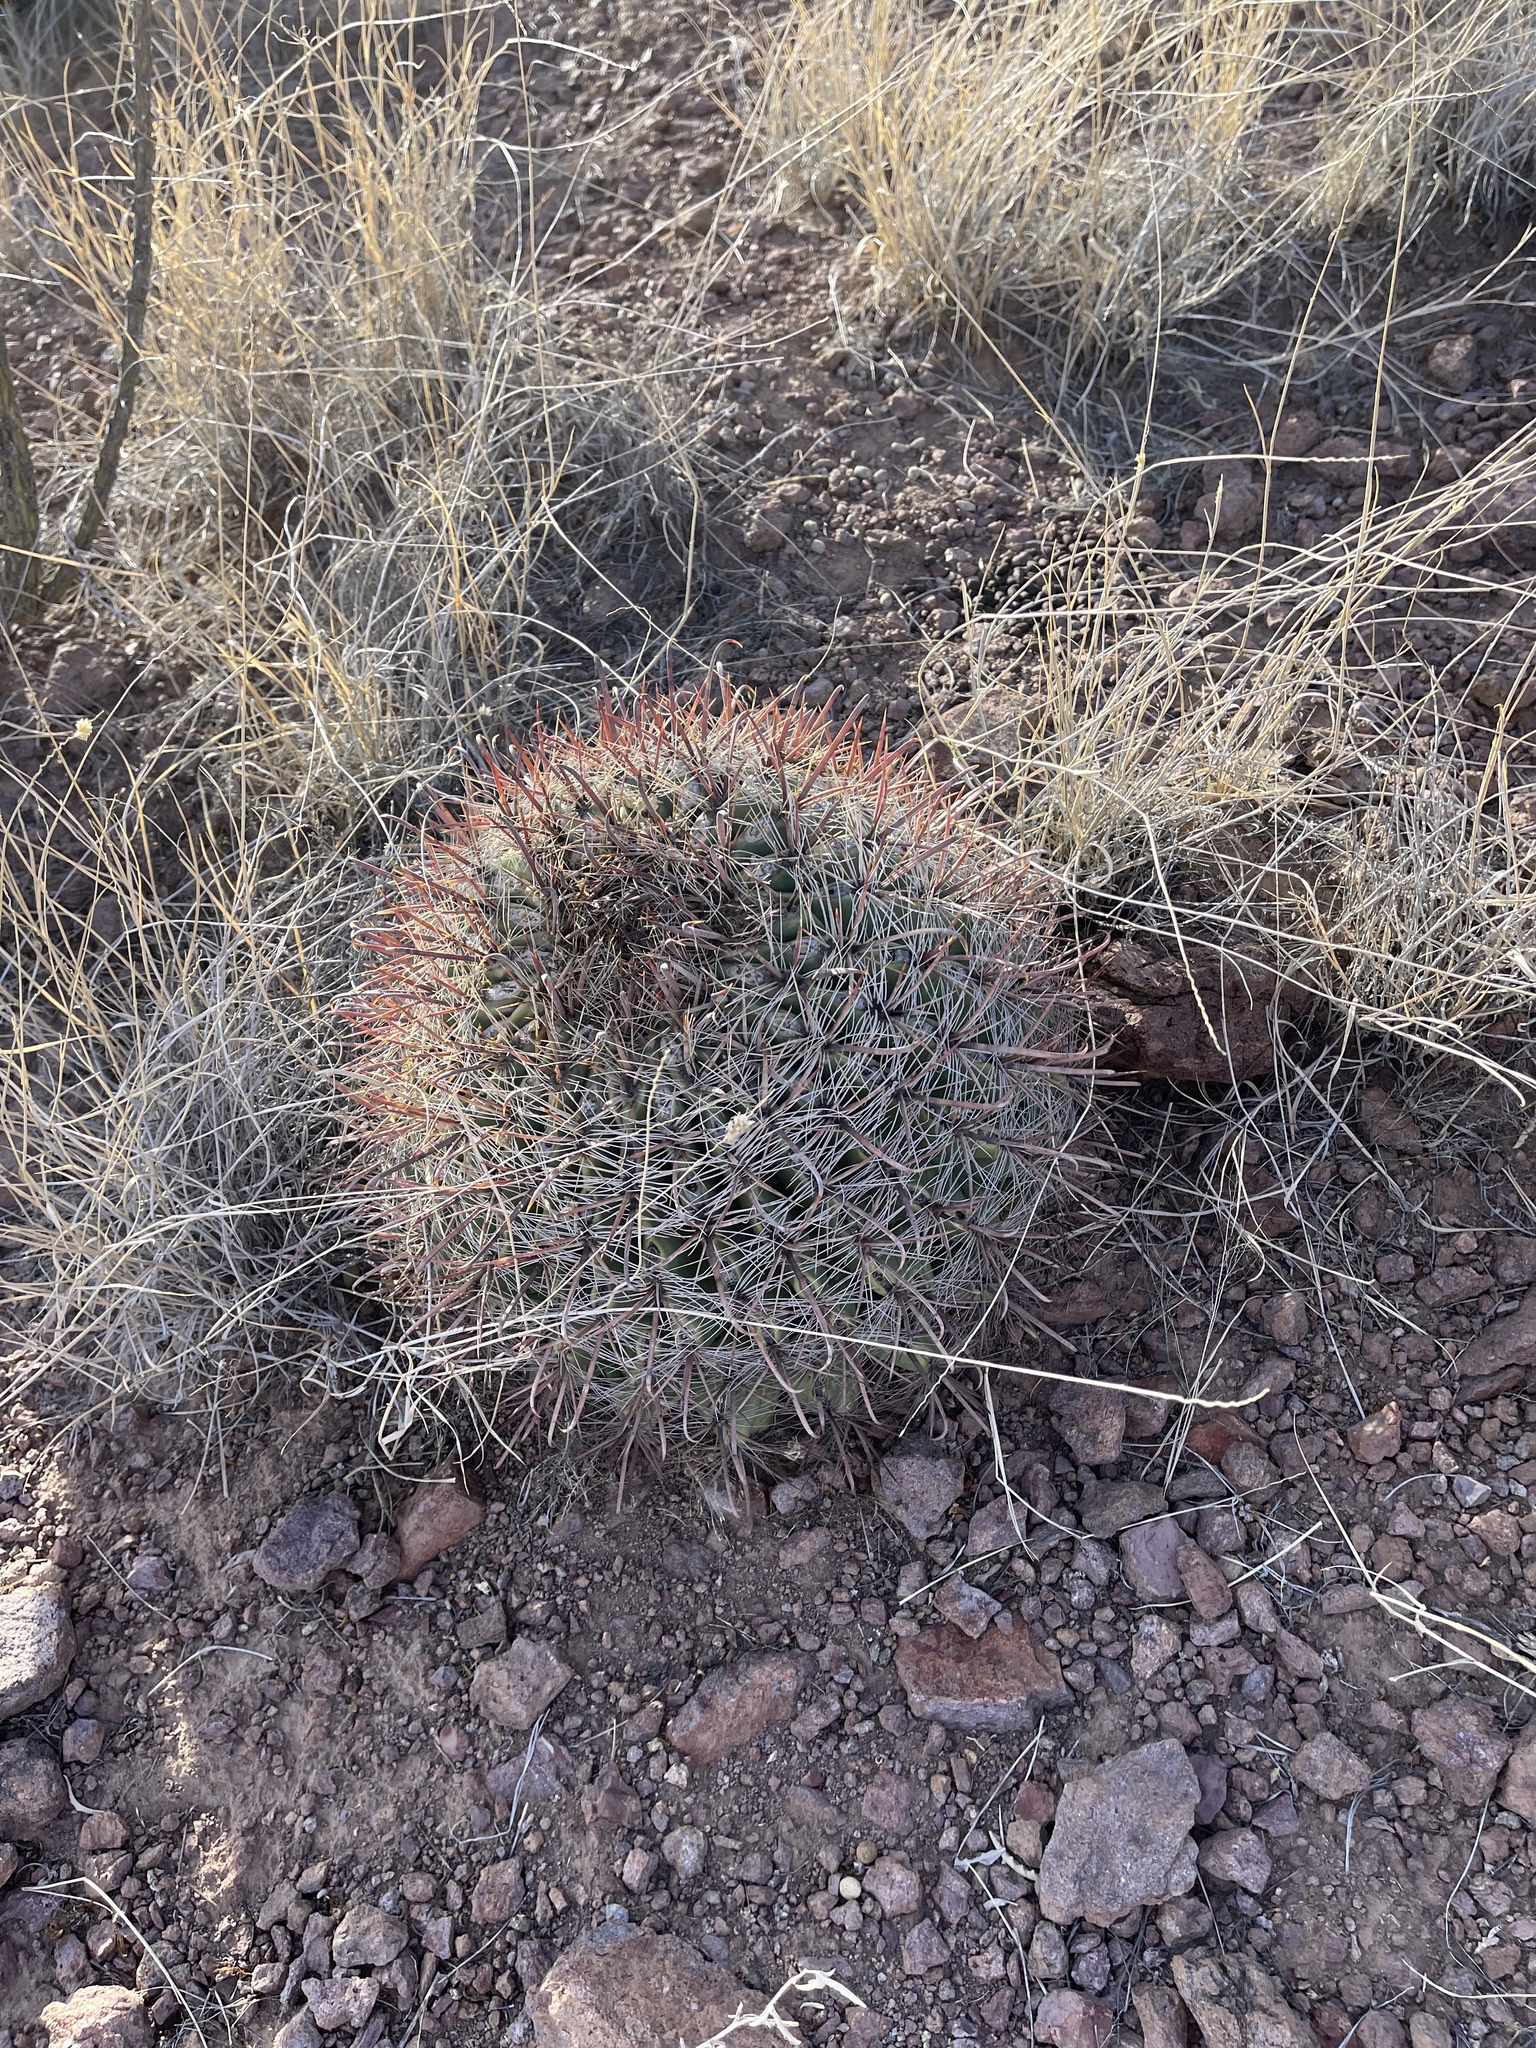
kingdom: Plantae
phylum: Tracheophyta
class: Magnoliopsida
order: Caryophyllales
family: Cactaceae
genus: Ferocactus
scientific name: Ferocactus wislizeni
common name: Candy barrel cactus
